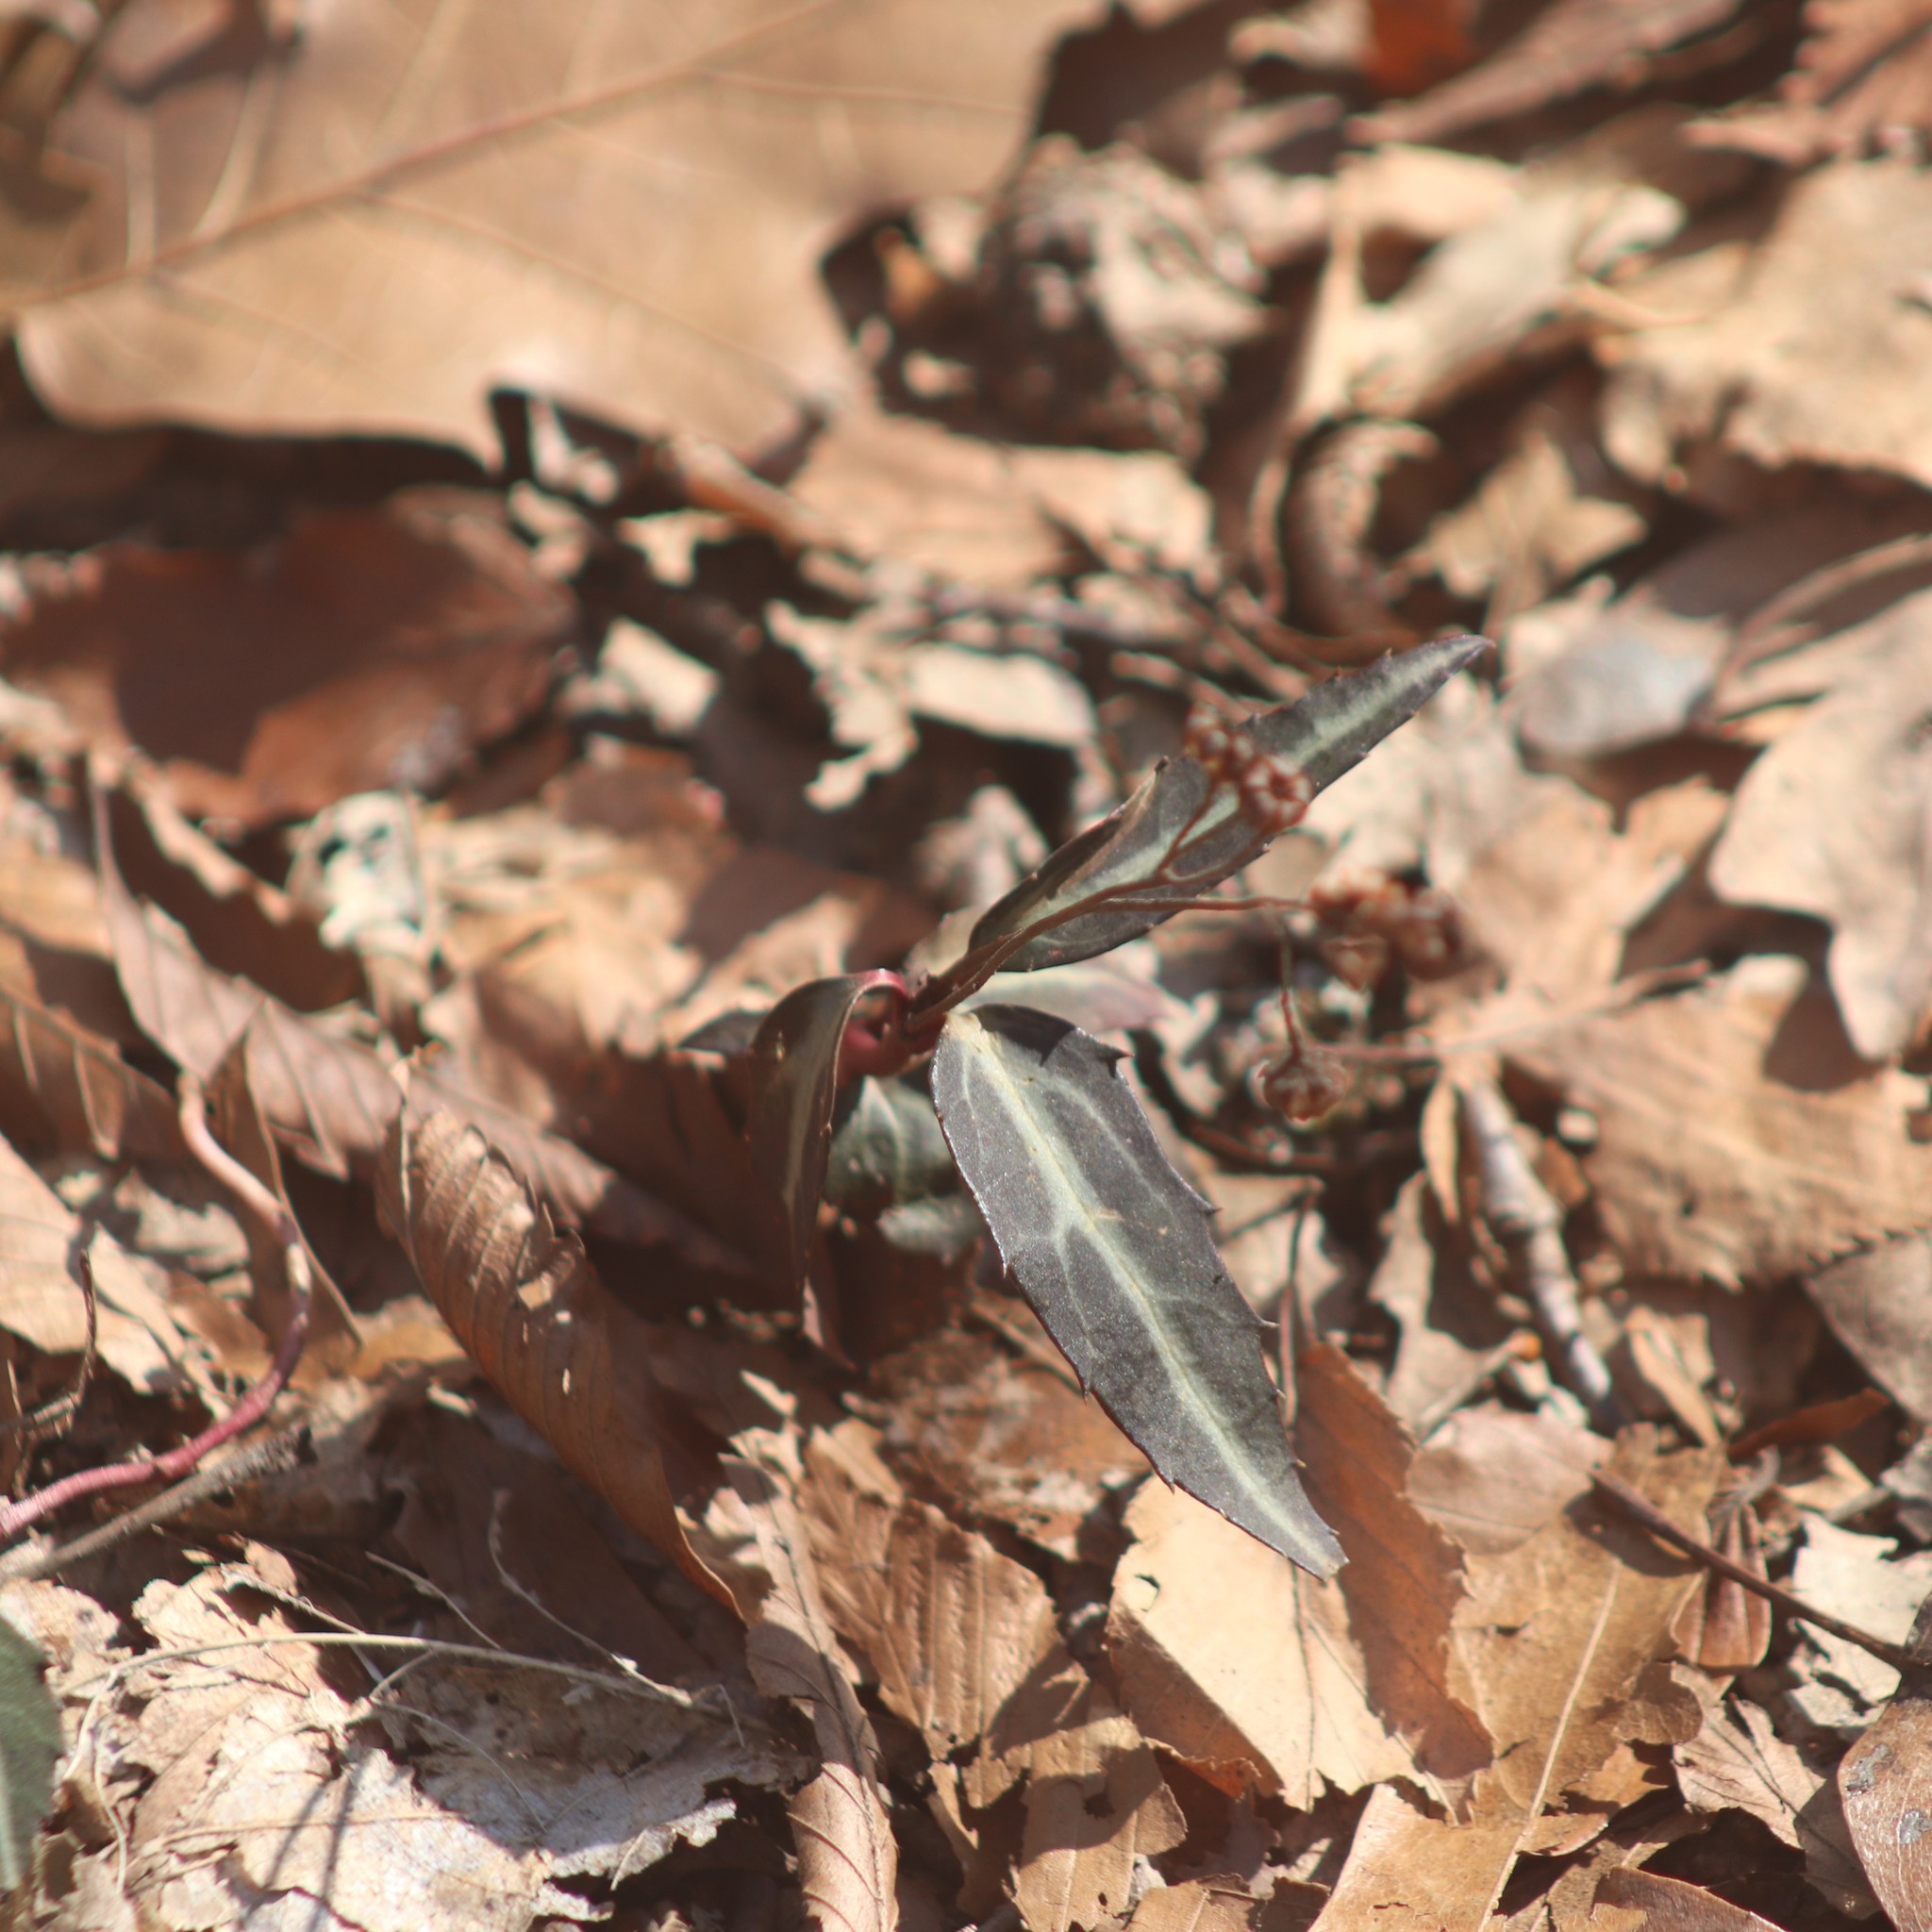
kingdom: Plantae
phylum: Tracheophyta
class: Magnoliopsida
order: Ericales
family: Ericaceae
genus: Chimaphila
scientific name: Chimaphila maculata
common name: Spotted pipsissewa
